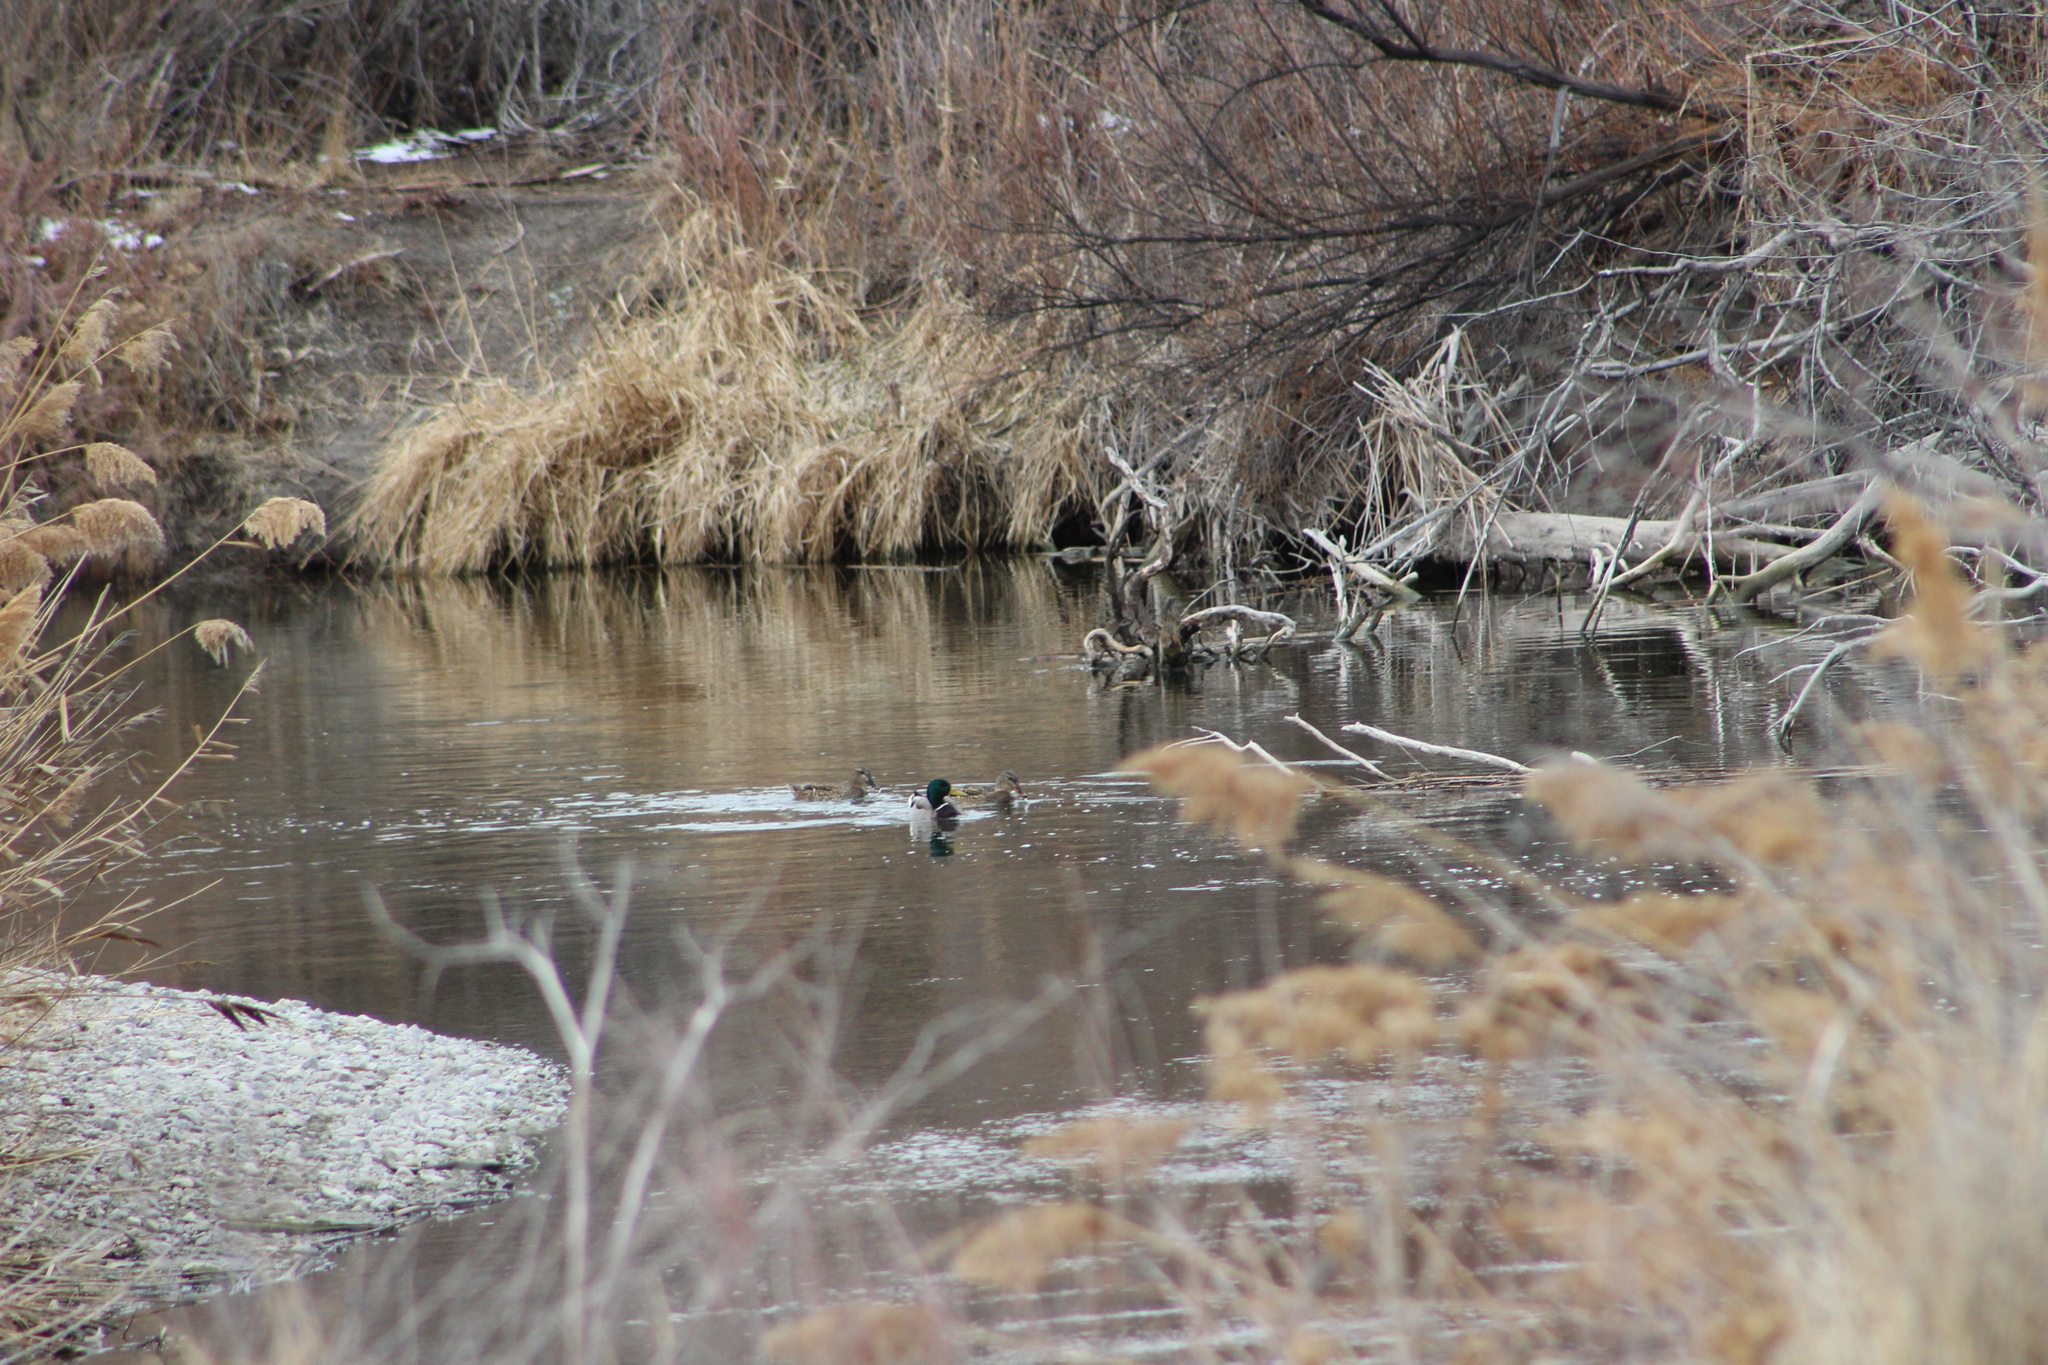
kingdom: Animalia
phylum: Chordata
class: Aves
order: Anseriformes
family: Anatidae
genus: Anas
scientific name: Anas platyrhynchos
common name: Mallard
